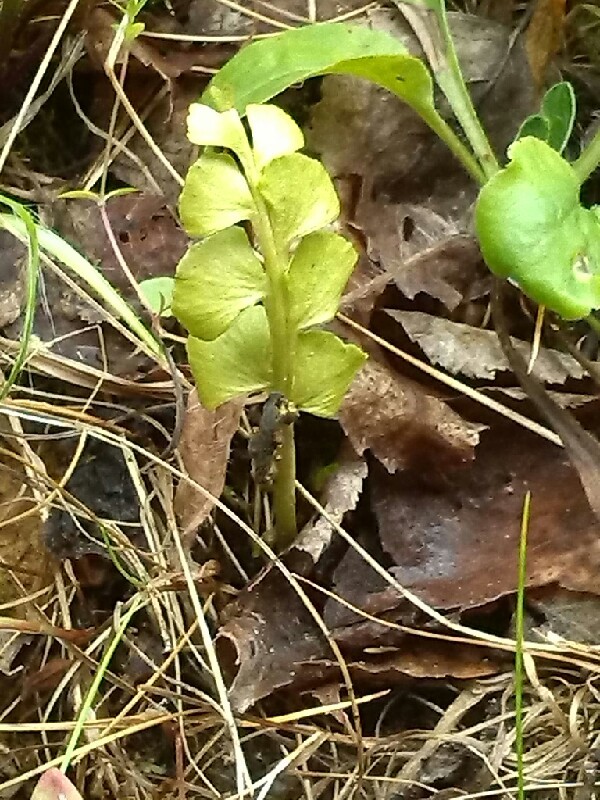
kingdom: Plantae
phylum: Tracheophyta
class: Polypodiopsida
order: Ophioglossales
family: Ophioglossaceae
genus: Botrychium
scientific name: Botrychium lunaria
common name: Moonwort
